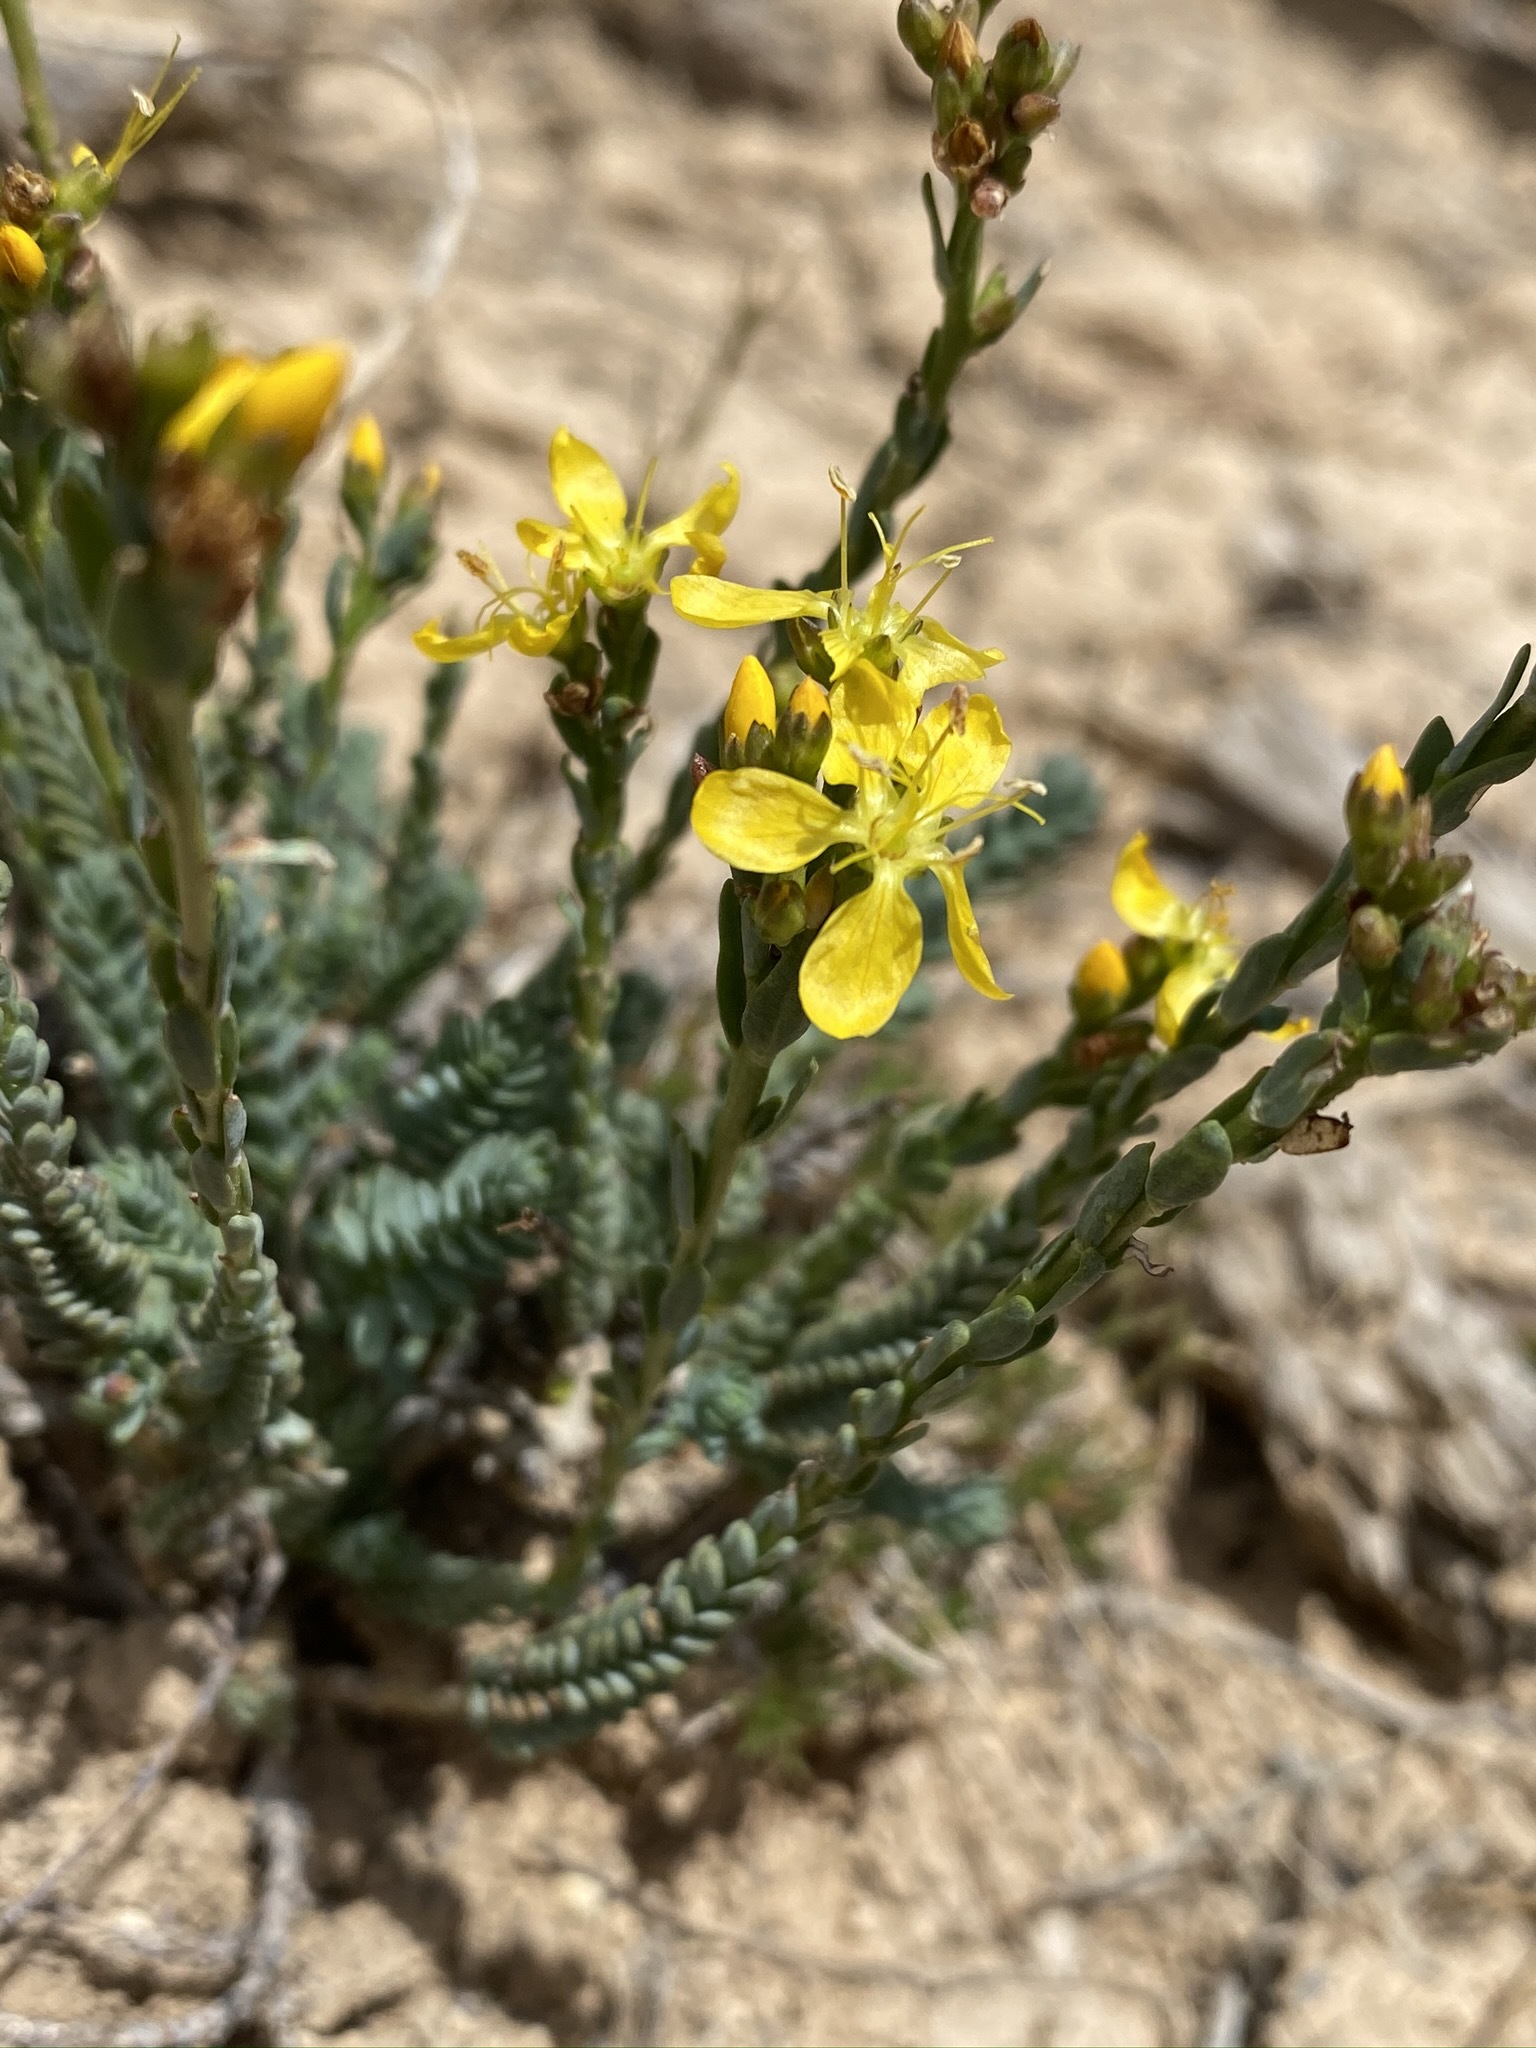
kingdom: Plantae
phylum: Tracheophyta
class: Magnoliopsida
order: Malpighiales
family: Linaceae
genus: Linum
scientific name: Linum kingii
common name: King's yellow flax
